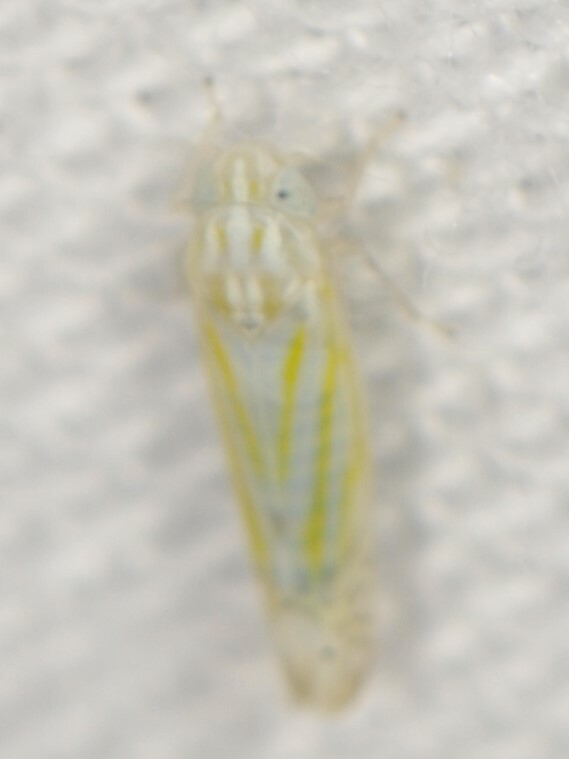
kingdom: Animalia
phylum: Arthropoda
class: Insecta
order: Hemiptera
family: Cicadellidae
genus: Alconeura
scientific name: Alconeura
